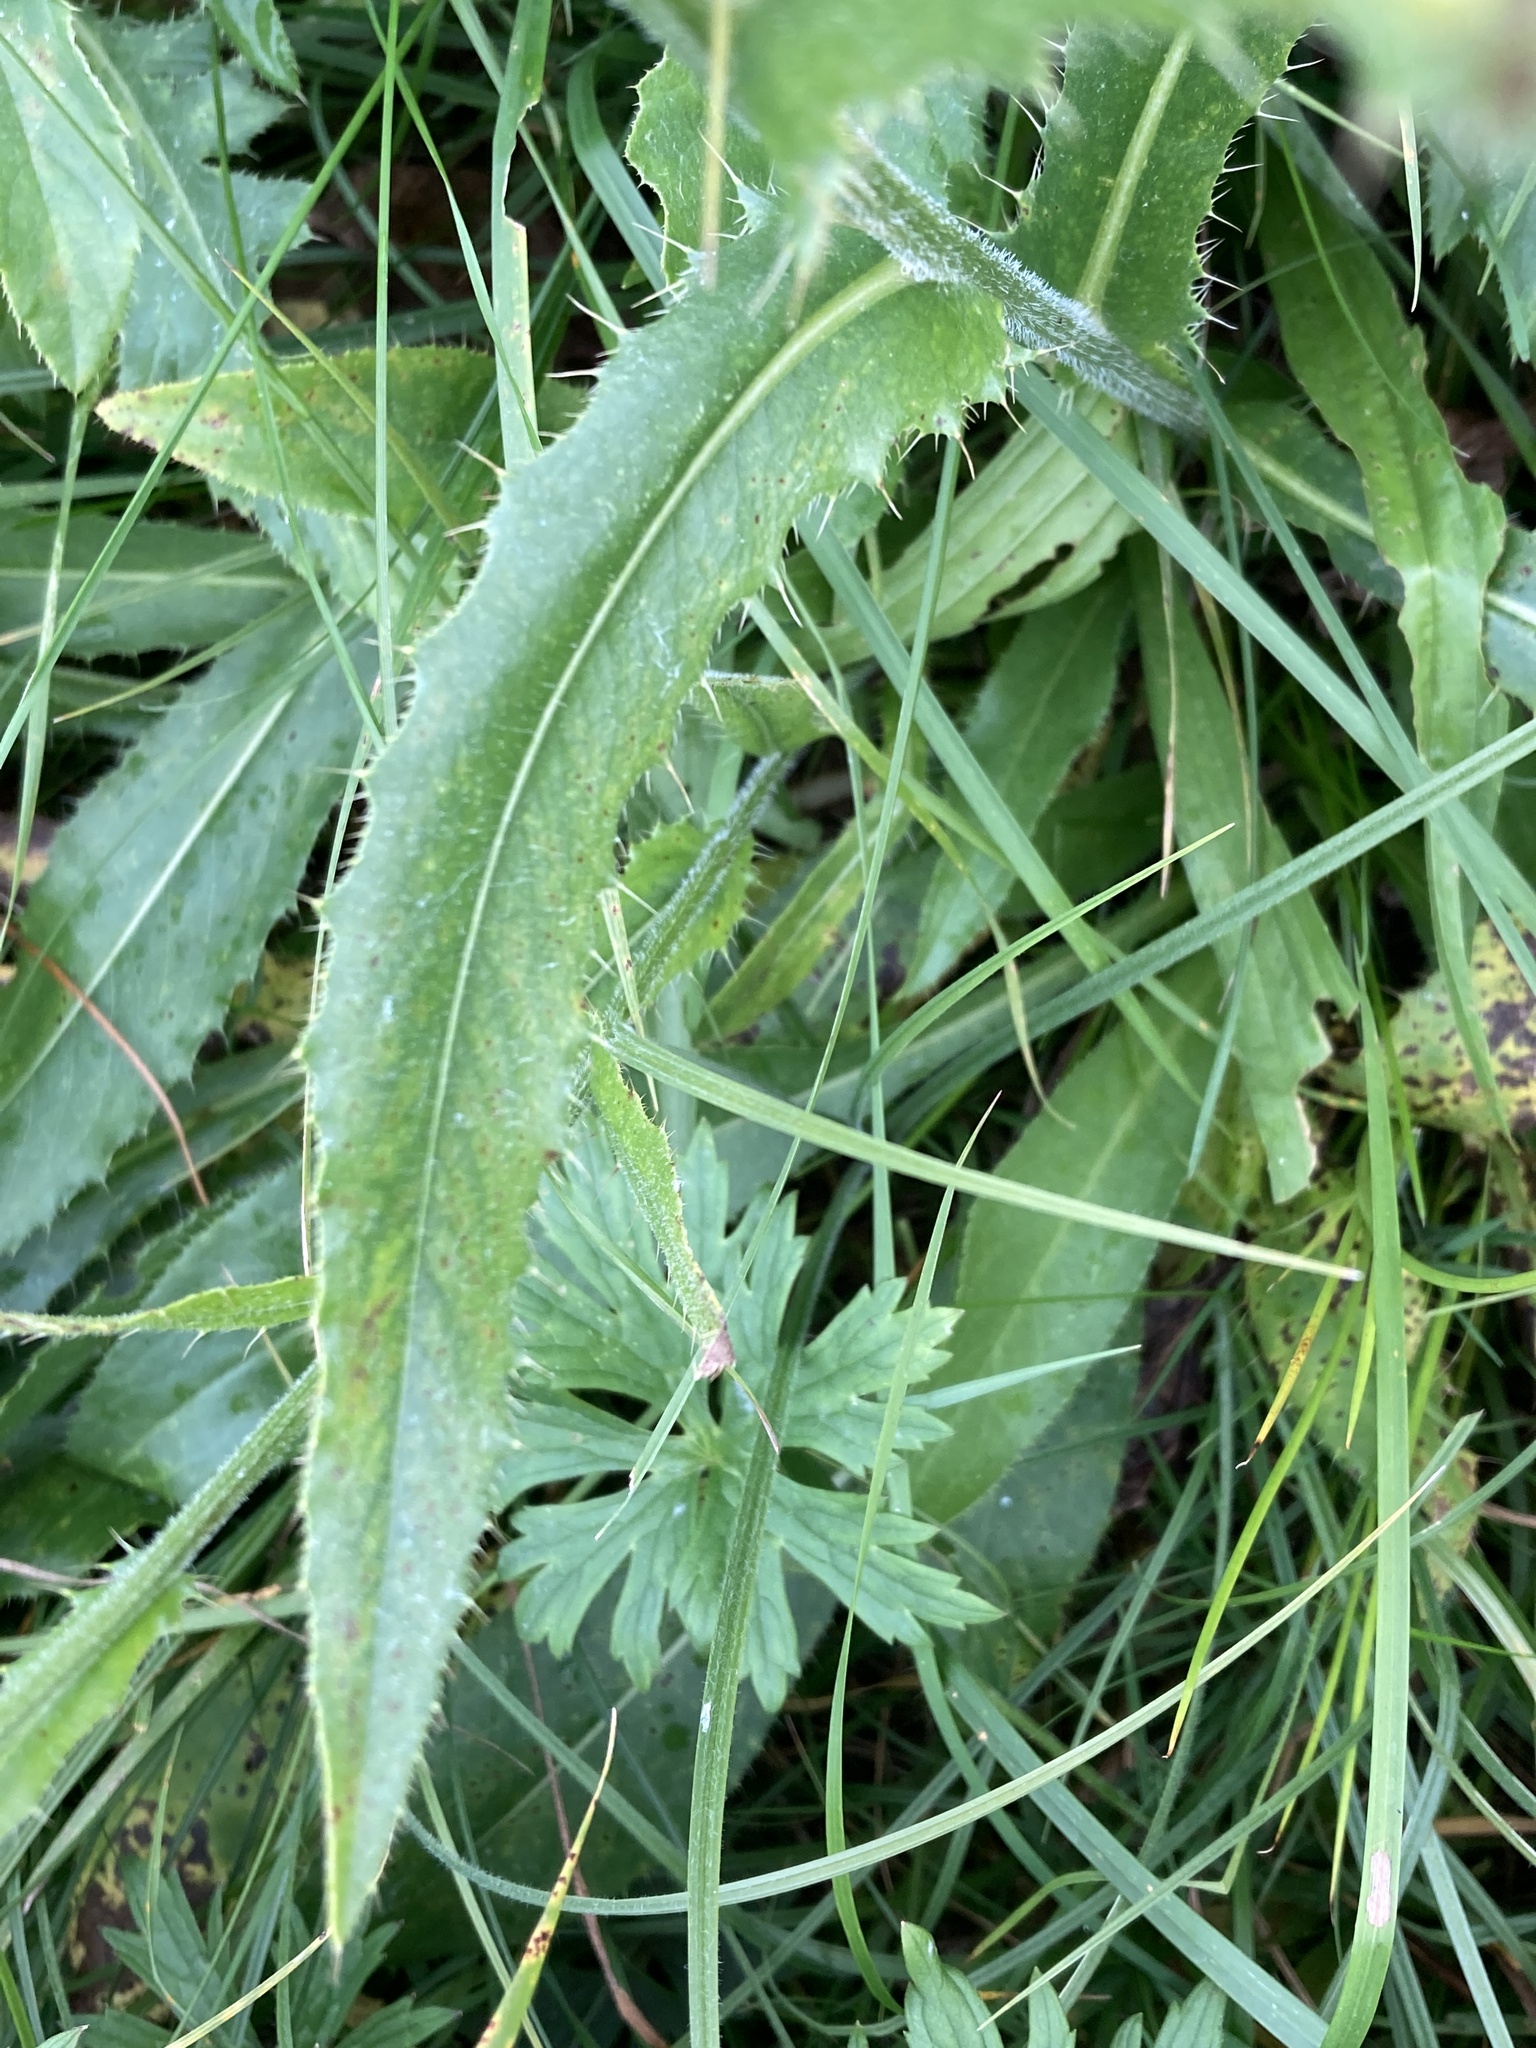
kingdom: Plantae
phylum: Tracheophyta
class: Magnoliopsida
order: Asterales
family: Asteraceae
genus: Cirsium
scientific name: Cirsium canum
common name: Queen anne's thistle
